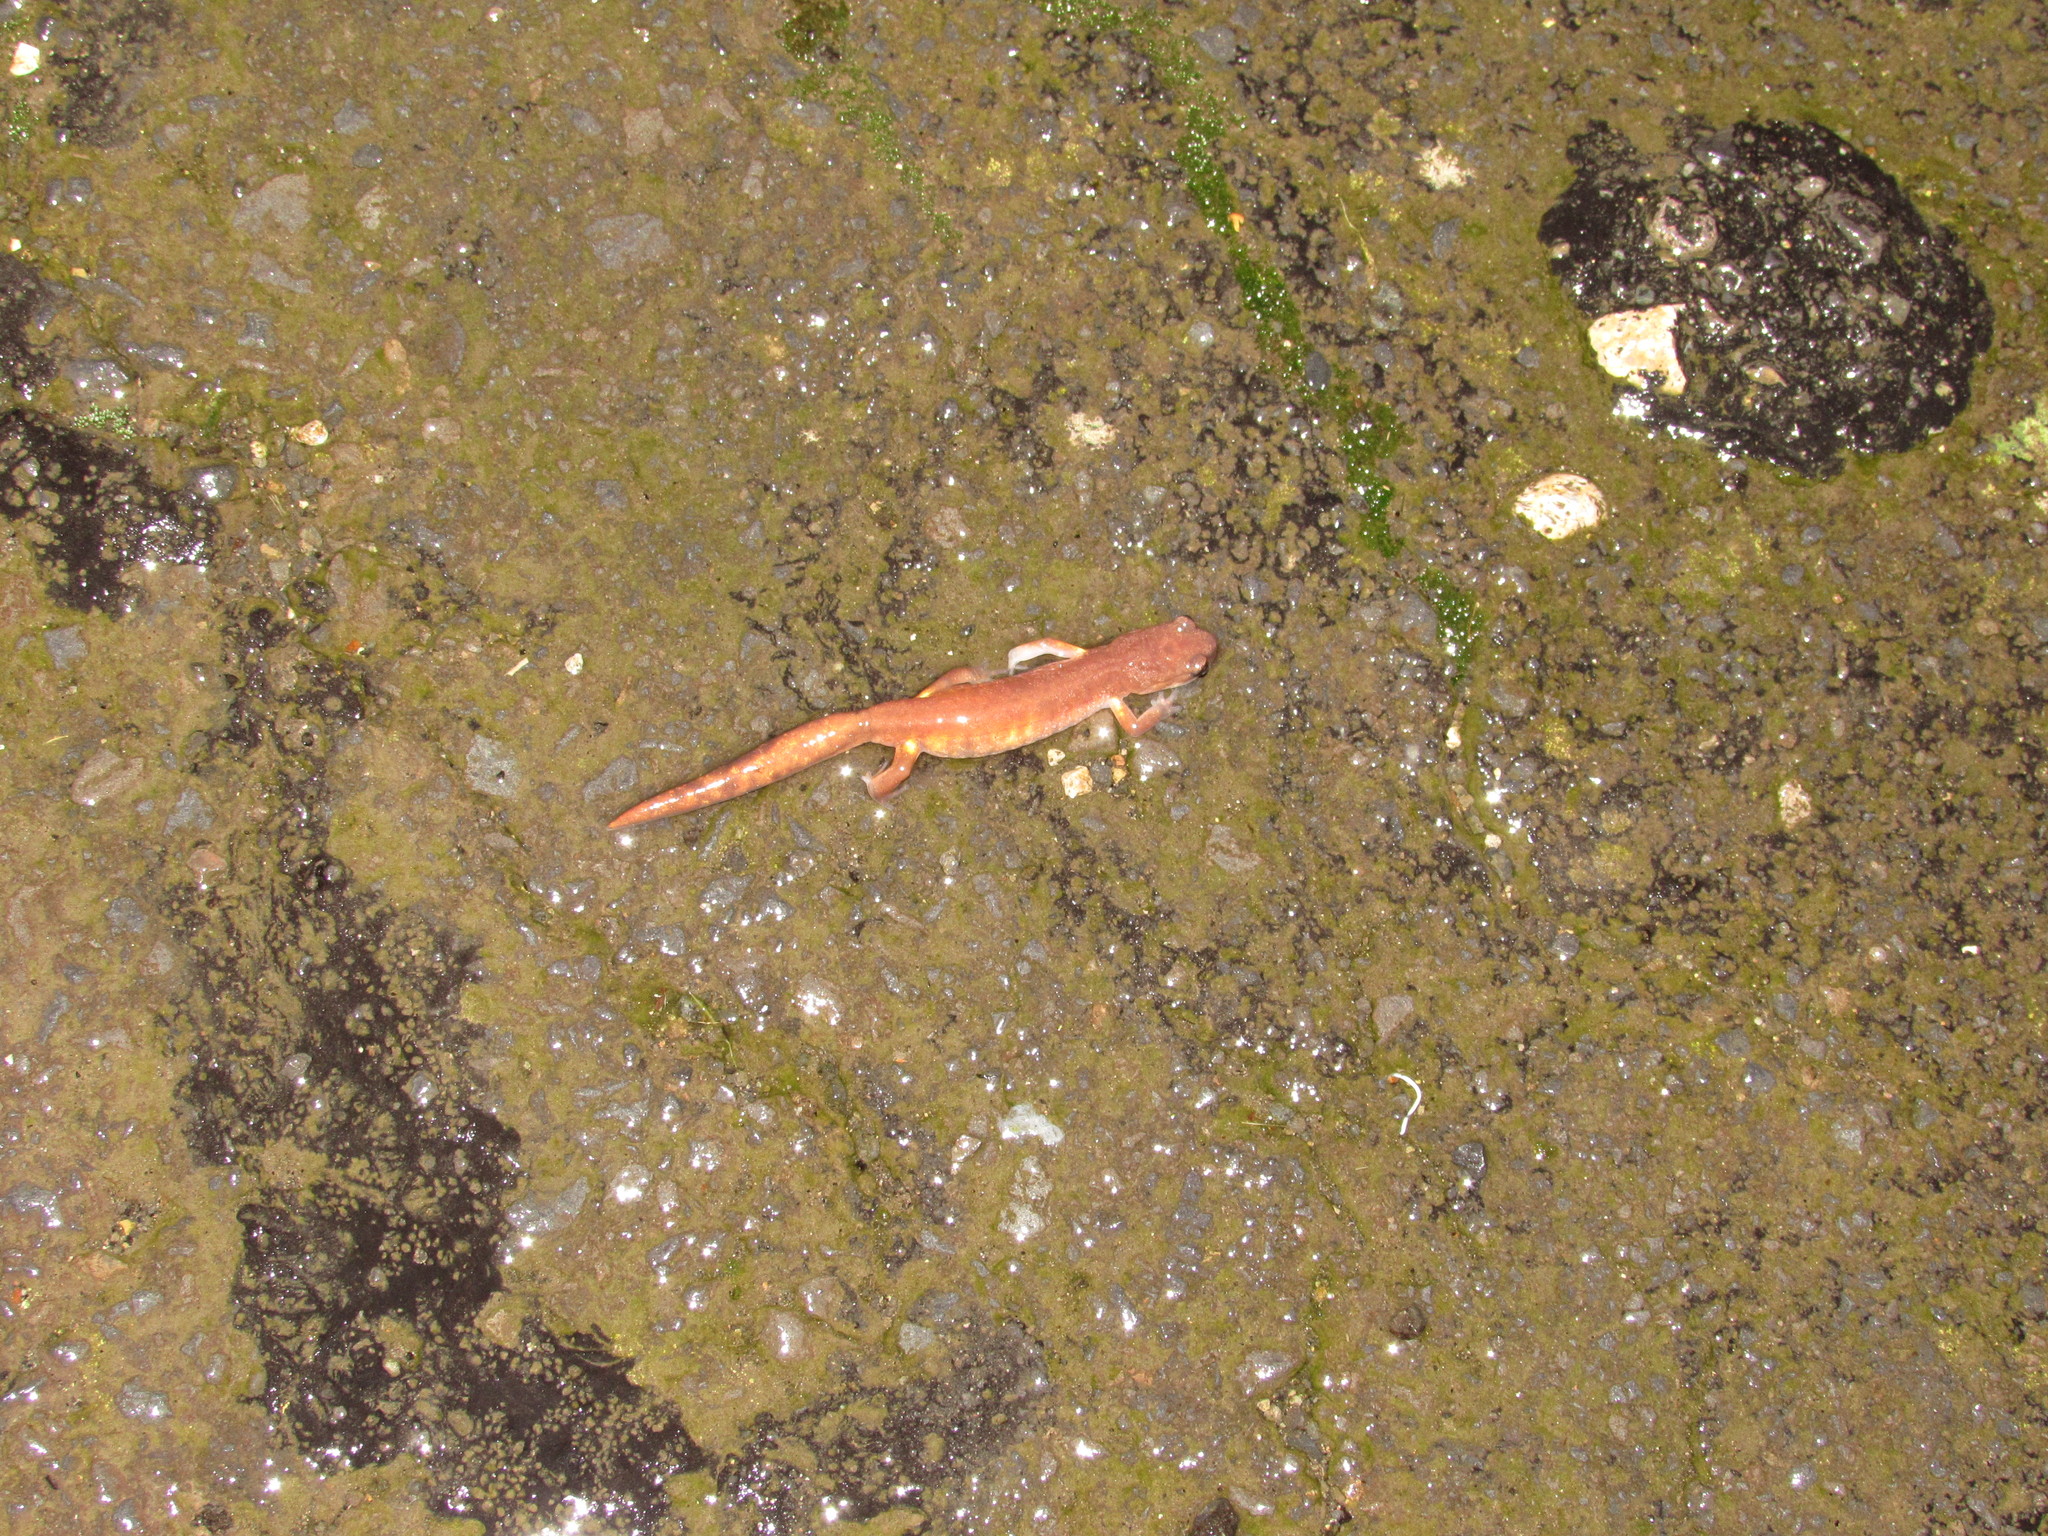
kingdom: Animalia
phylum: Chordata
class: Amphibia
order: Caudata
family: Plethodontidae
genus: Ensatina
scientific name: Ensatina eschscholtzii
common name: Ensatina
